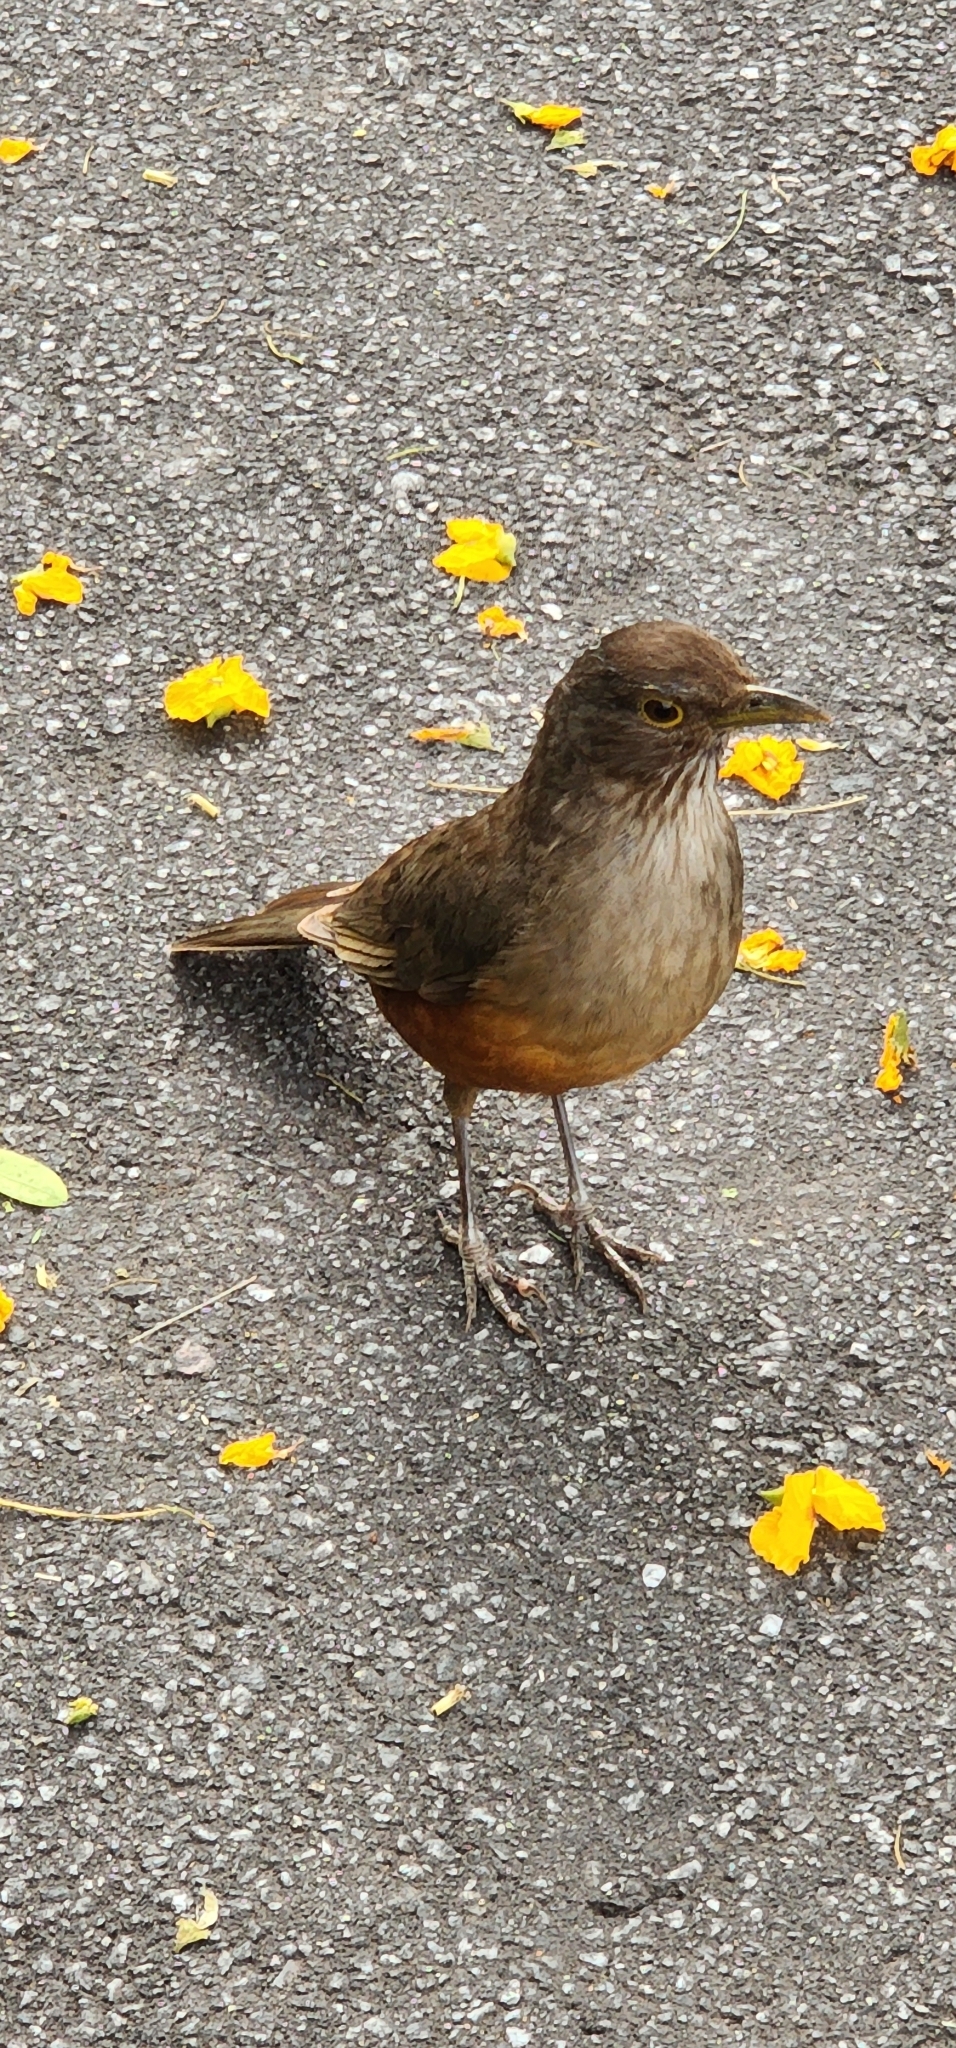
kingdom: Animalia
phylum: Chordata
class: Aves
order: Passeriformes
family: Turdidae
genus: Turdus
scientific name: Turdus rufiventris
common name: Rufous-bellied thrush
